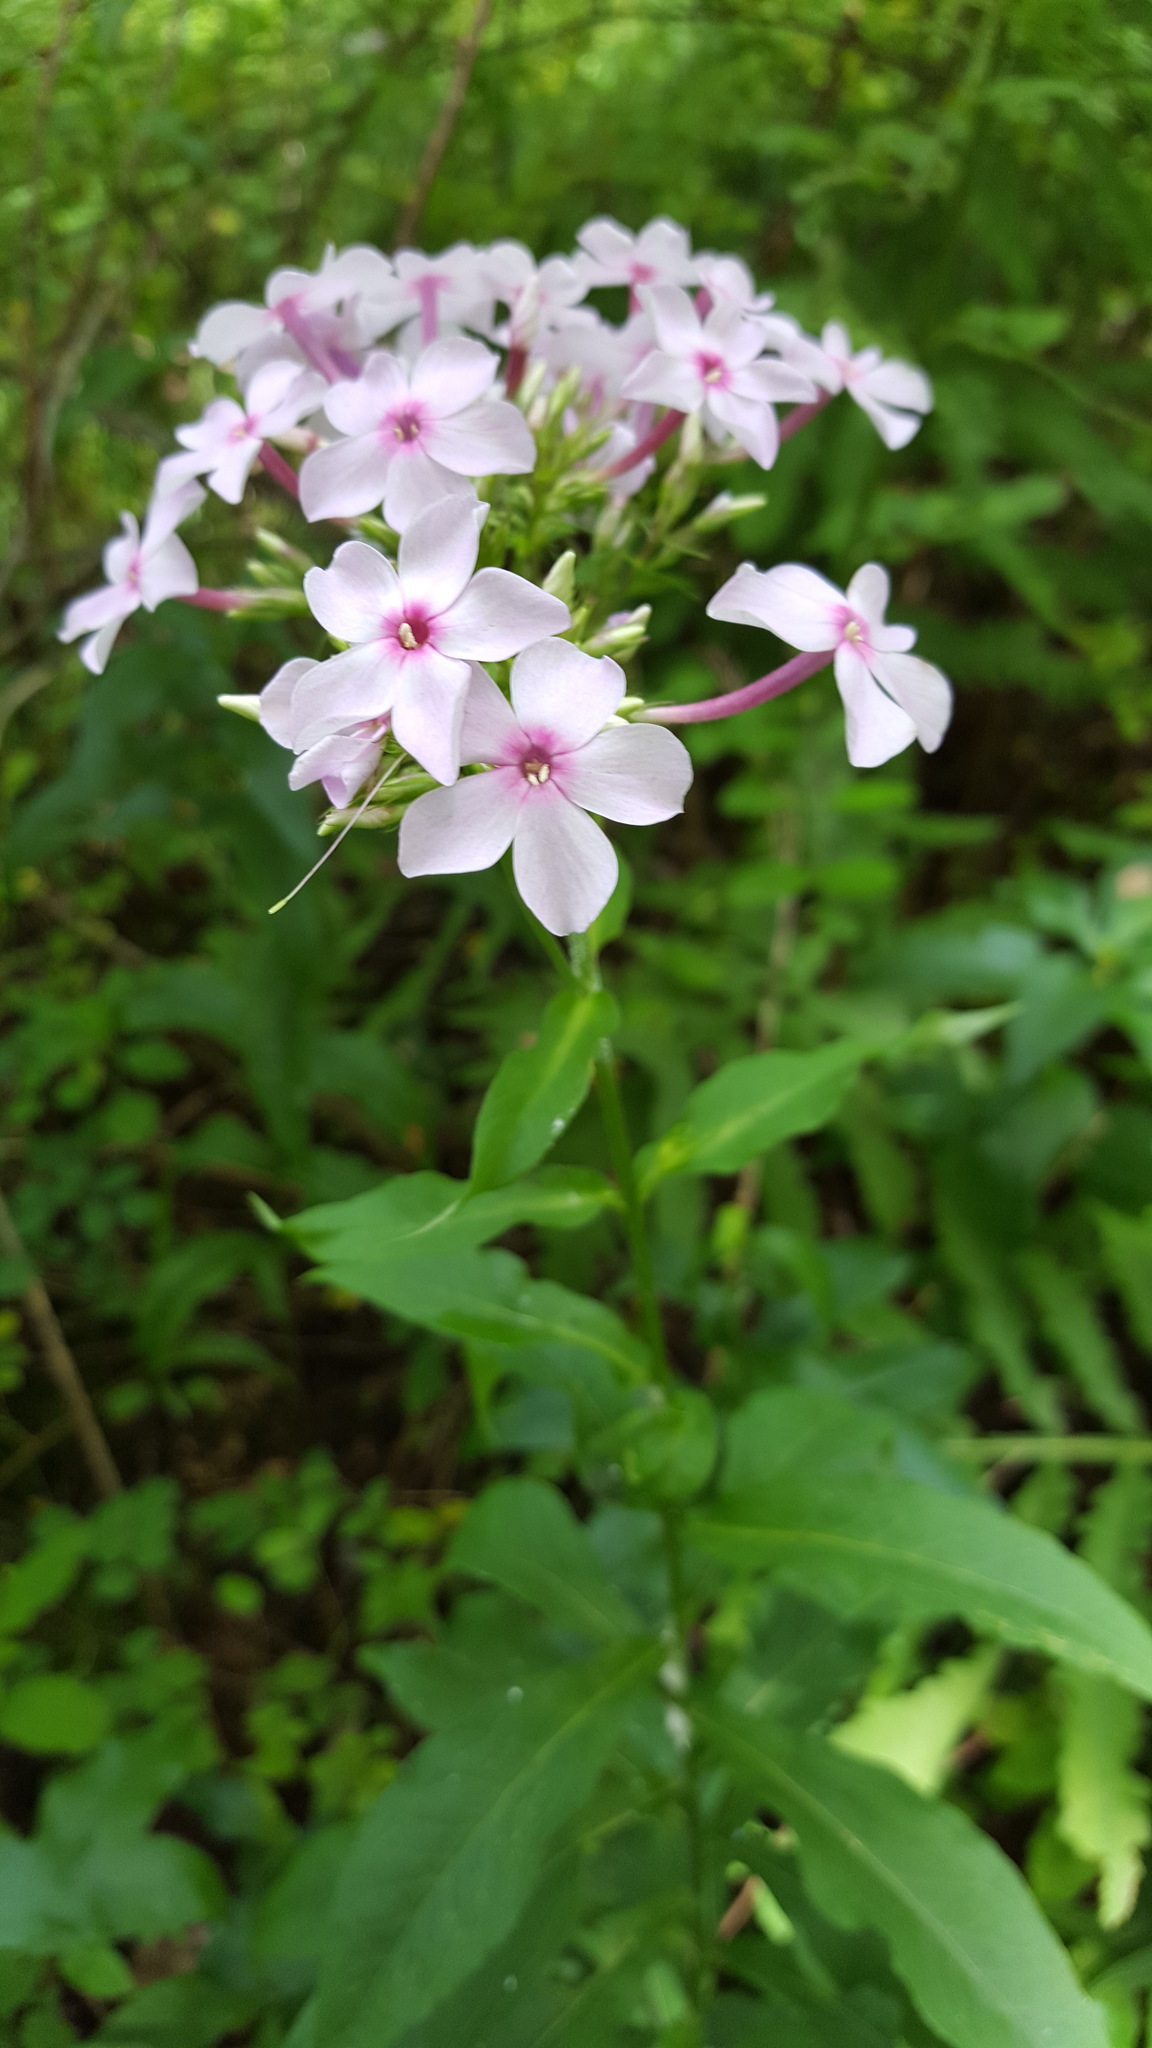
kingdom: Plantae
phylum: Tracheophyta
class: Magnoliopsida
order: Ericales
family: Polemoniaceae
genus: Phlox
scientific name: Phlox paniculata
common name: Fall phlox
